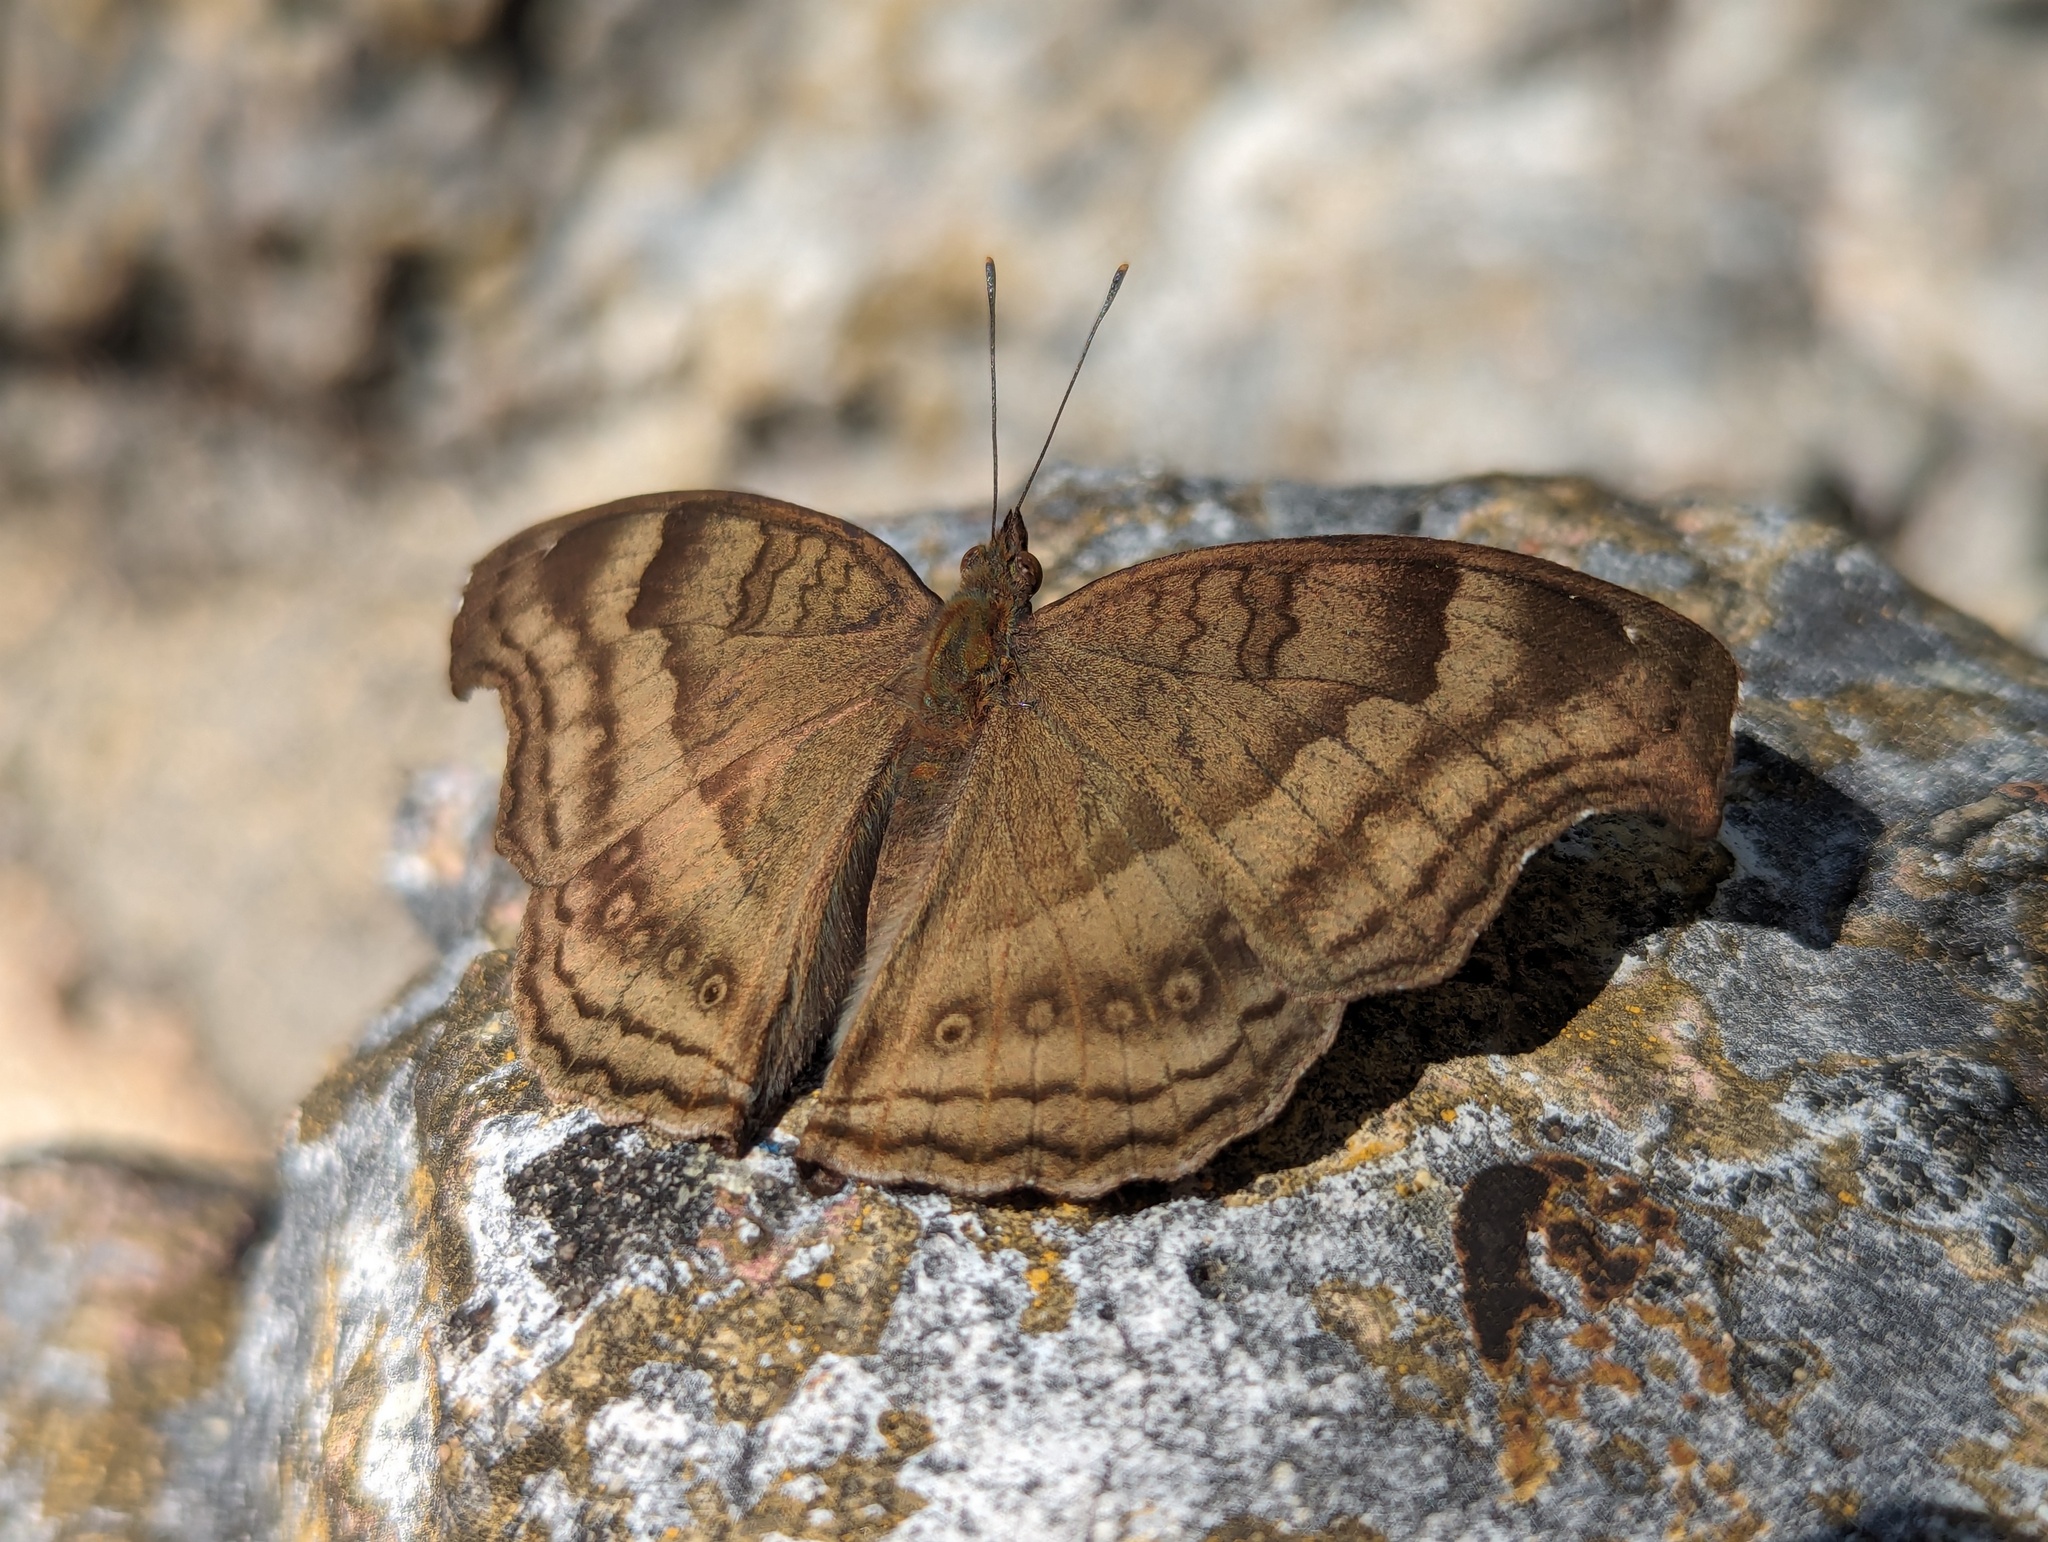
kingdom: Animalia
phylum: Arthropoda
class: Insecta
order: Lepidoptera
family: Nymphalidae
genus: Junonia
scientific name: Junonia iphita
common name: Chocolate pansy
